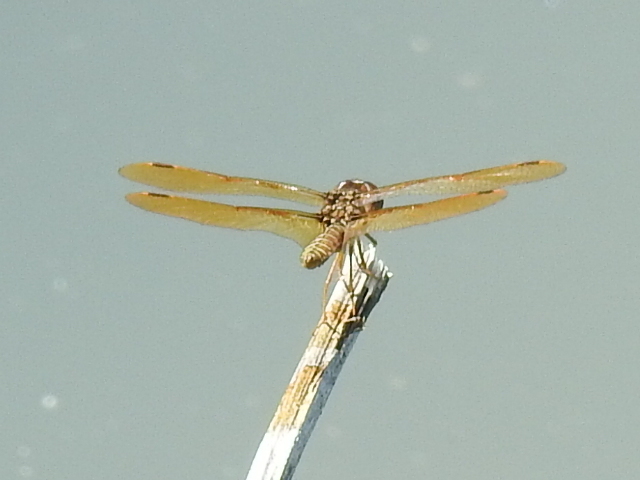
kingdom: Animalia
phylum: Arthropoda
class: Insecta
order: Odonata
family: Libellulidae
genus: Perithemis
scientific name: Perithemis tenera
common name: Eastern amberwing
